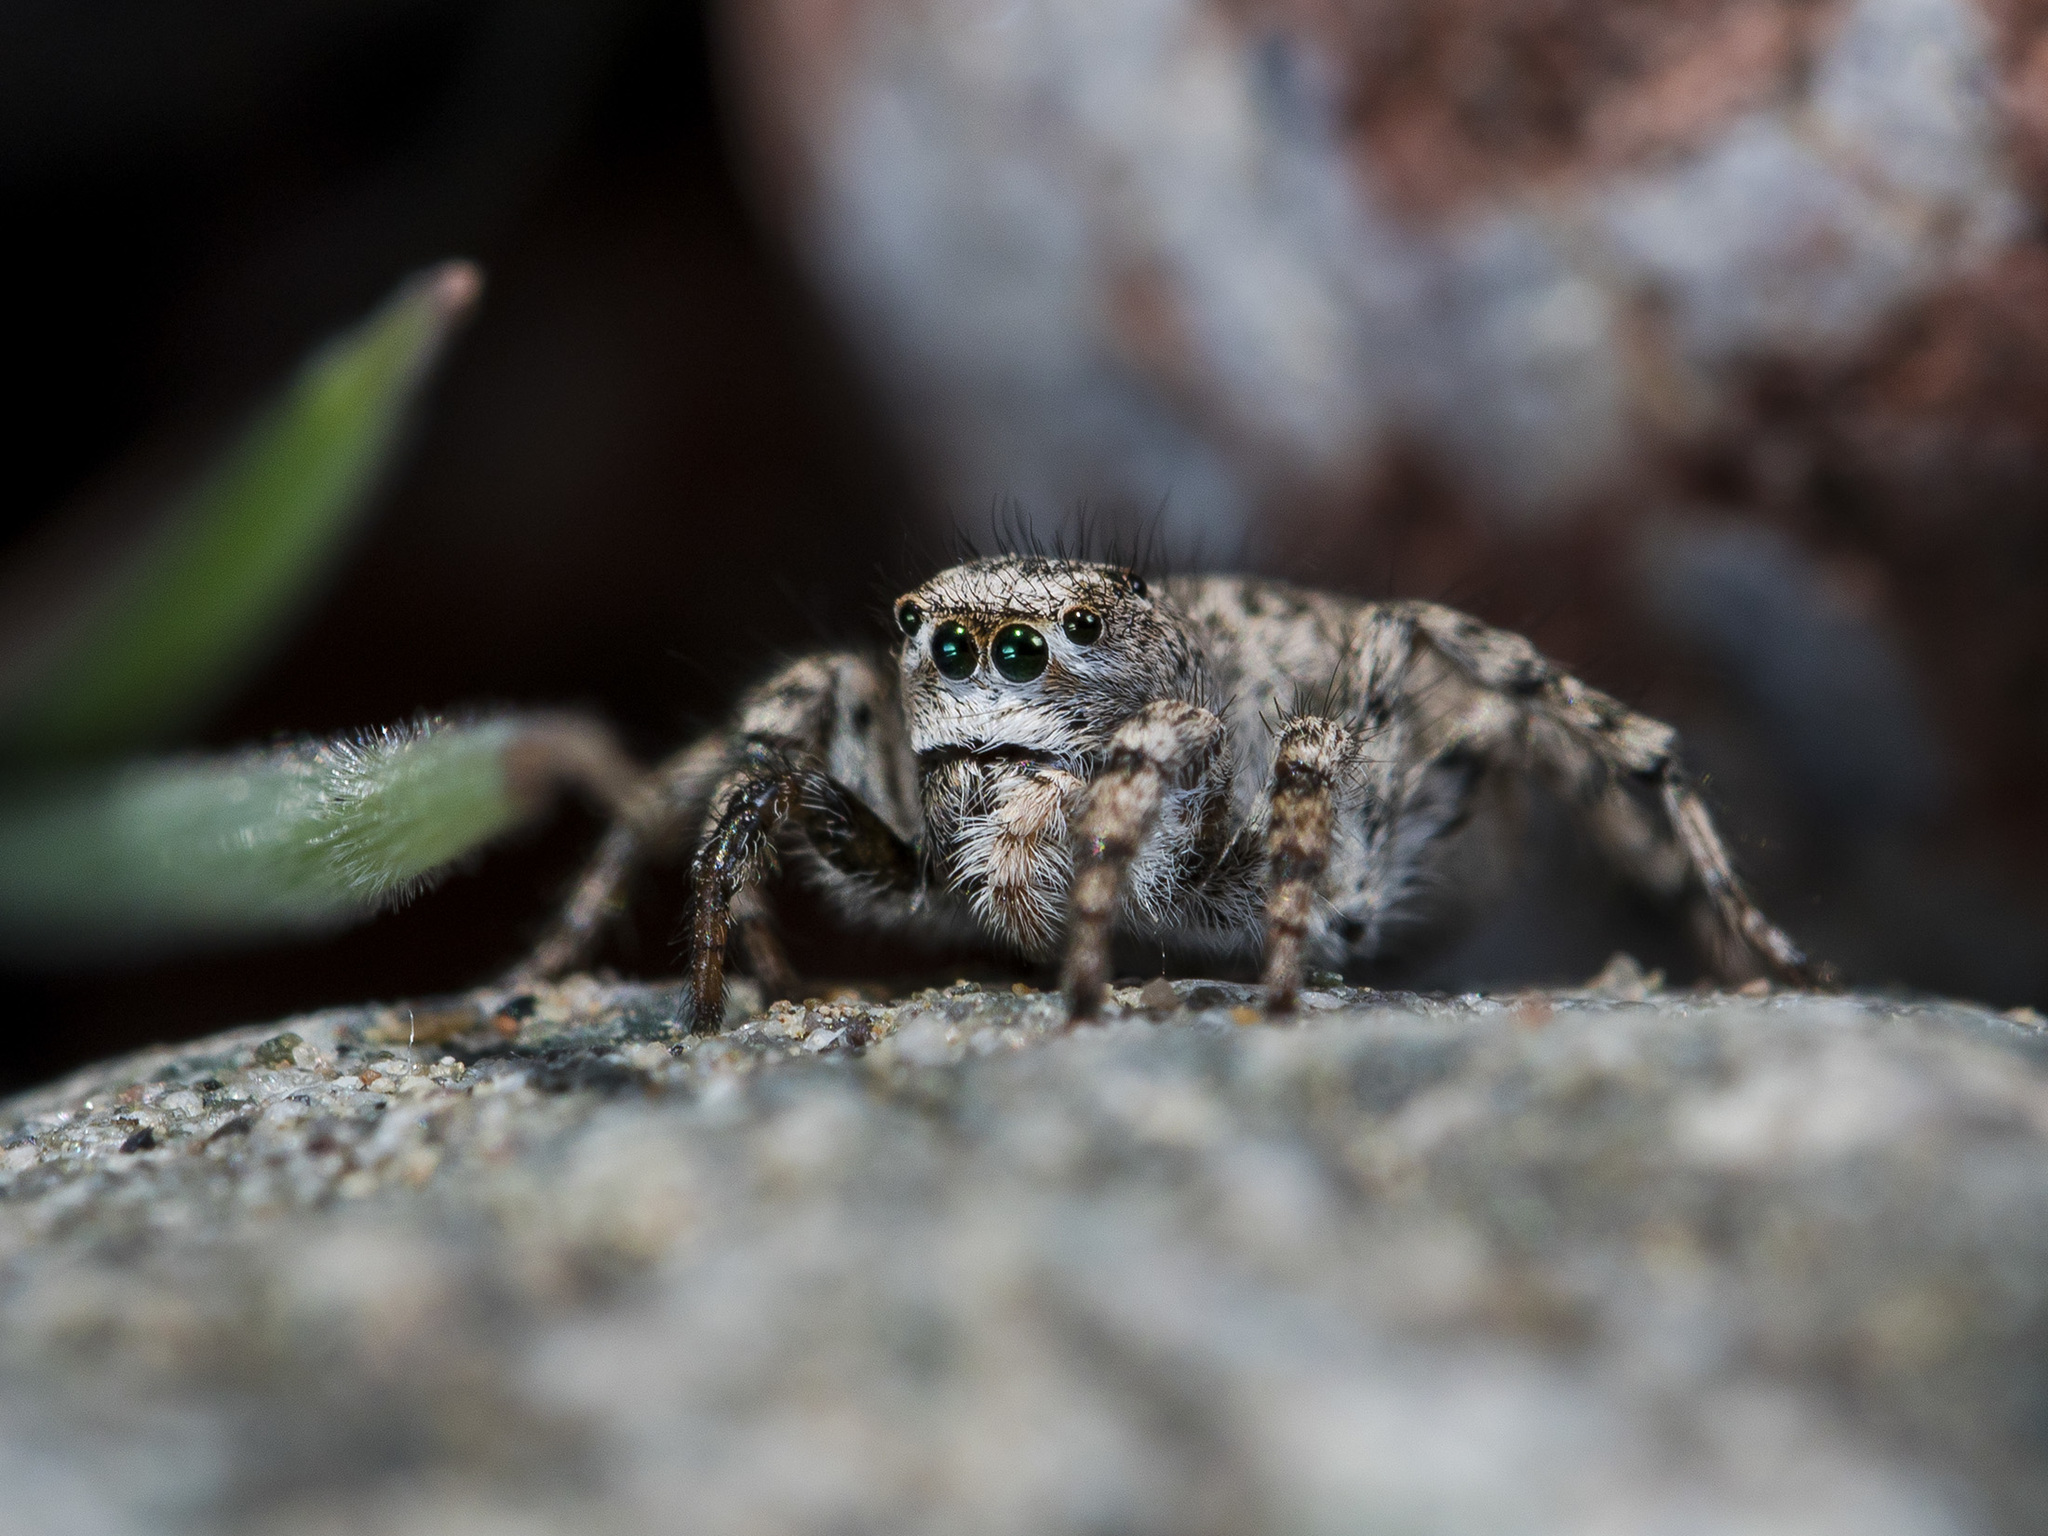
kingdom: Animalia
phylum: Arthropoda
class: Arachnida
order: Araneae
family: Salticidae
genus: Aelurillus
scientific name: Aelurillus dubatolovi
